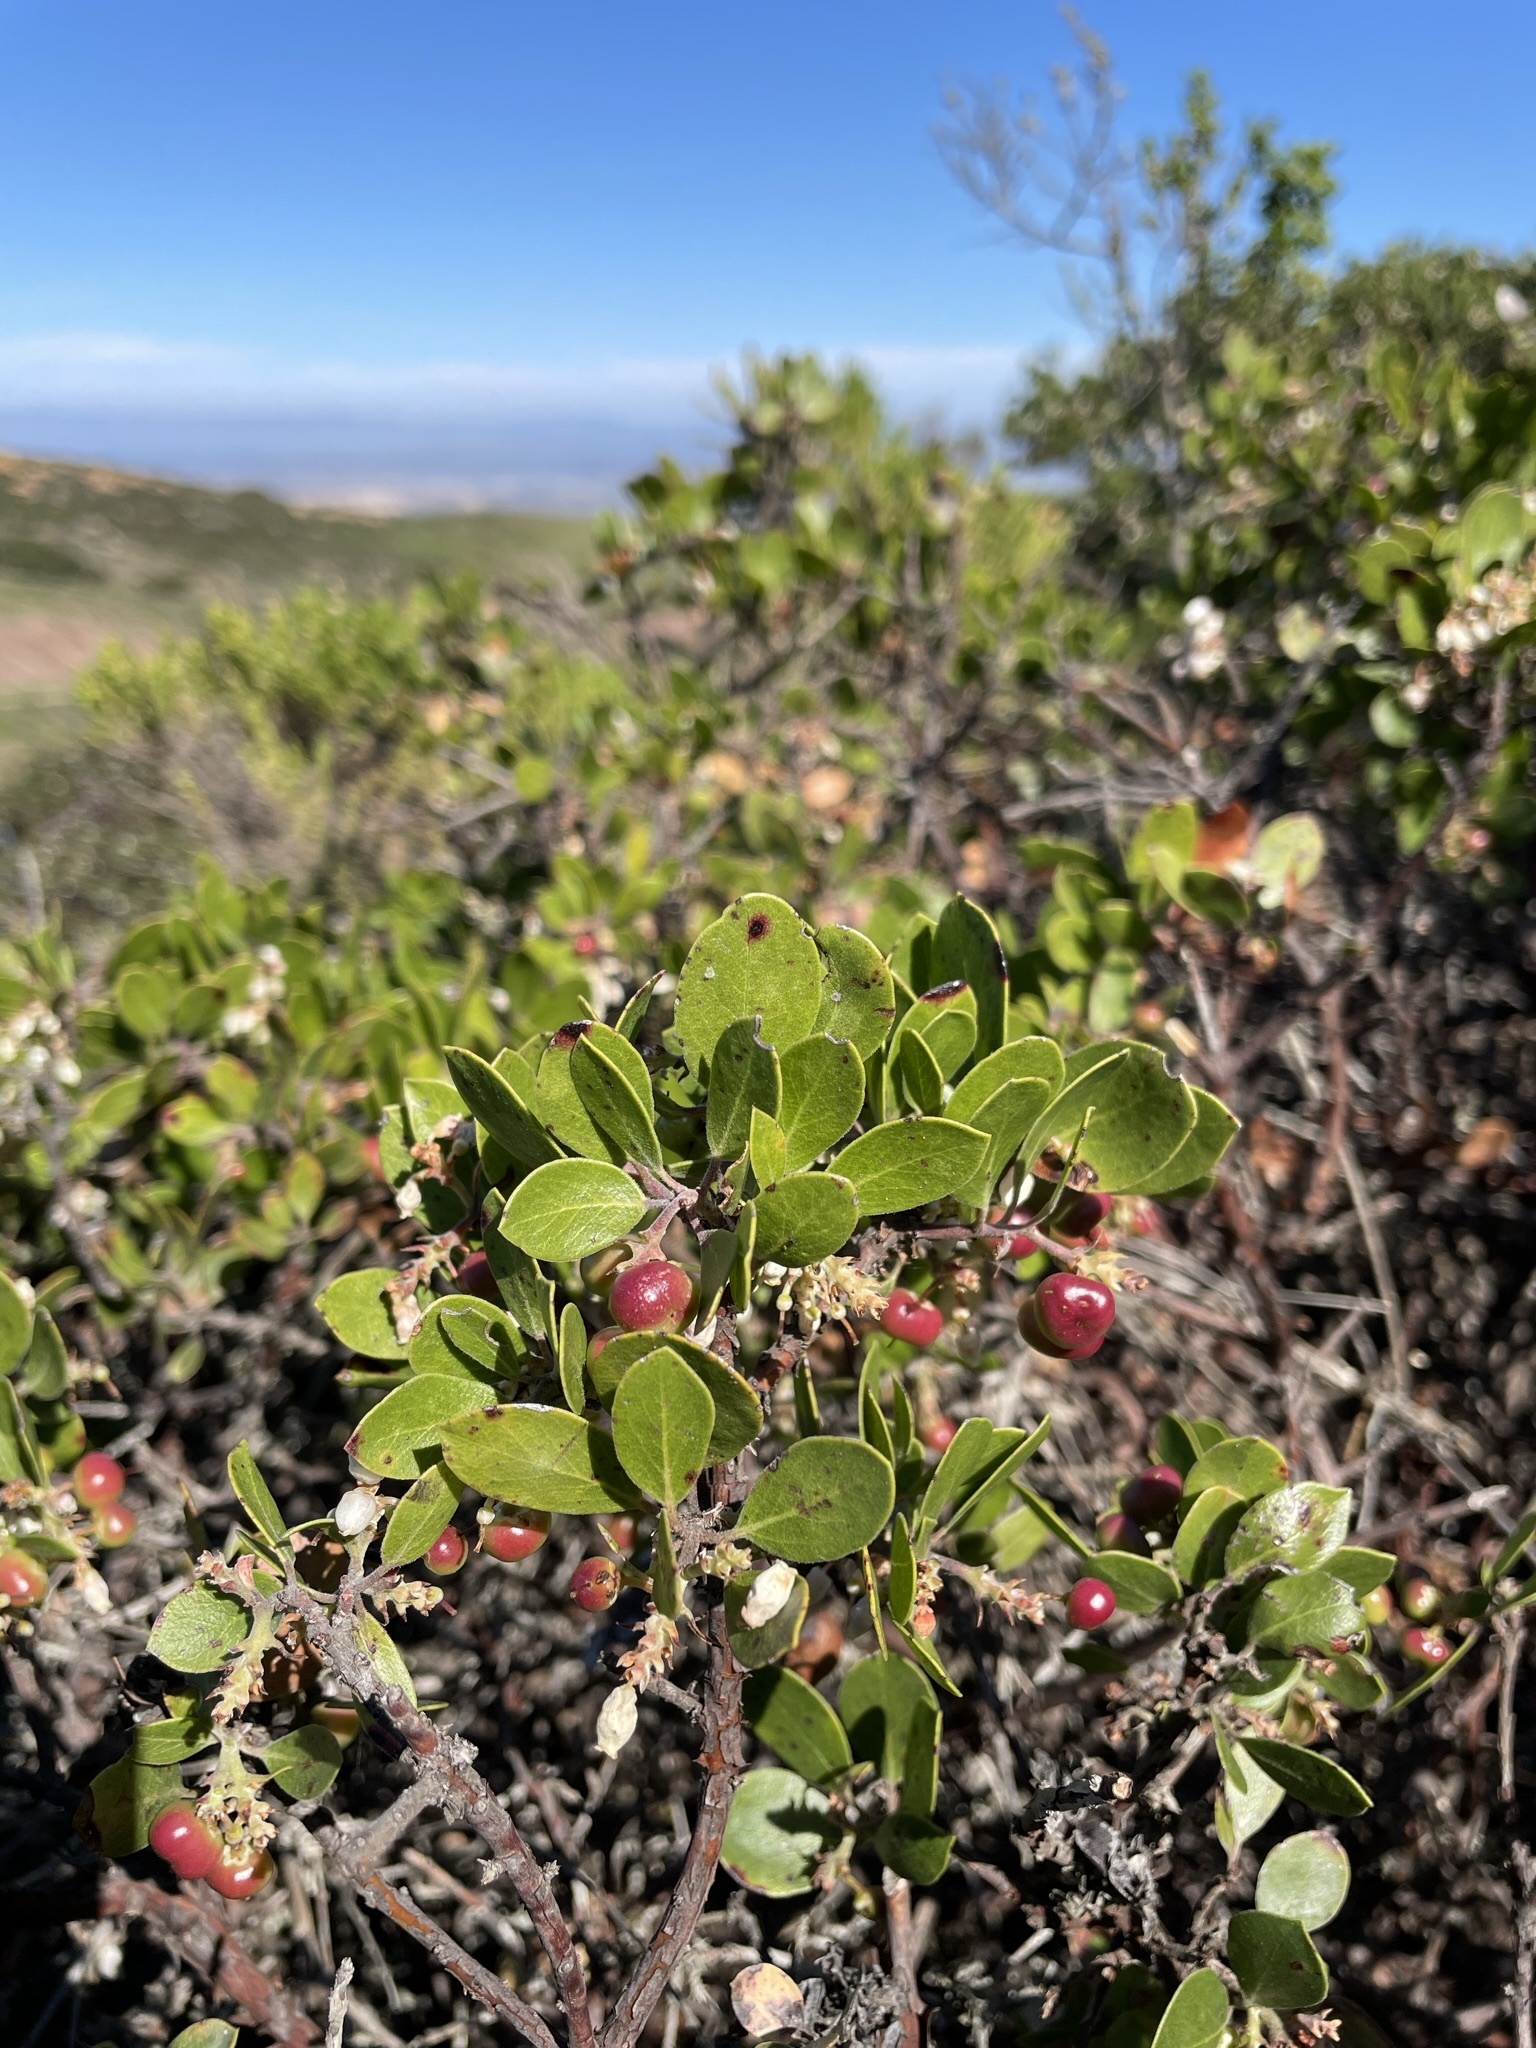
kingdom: Plantae
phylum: Tracheophyta
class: Magnoliopsida
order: Ericales
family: Ericaceae
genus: Arctostaphylos
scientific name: Arctostaphylos rudis
